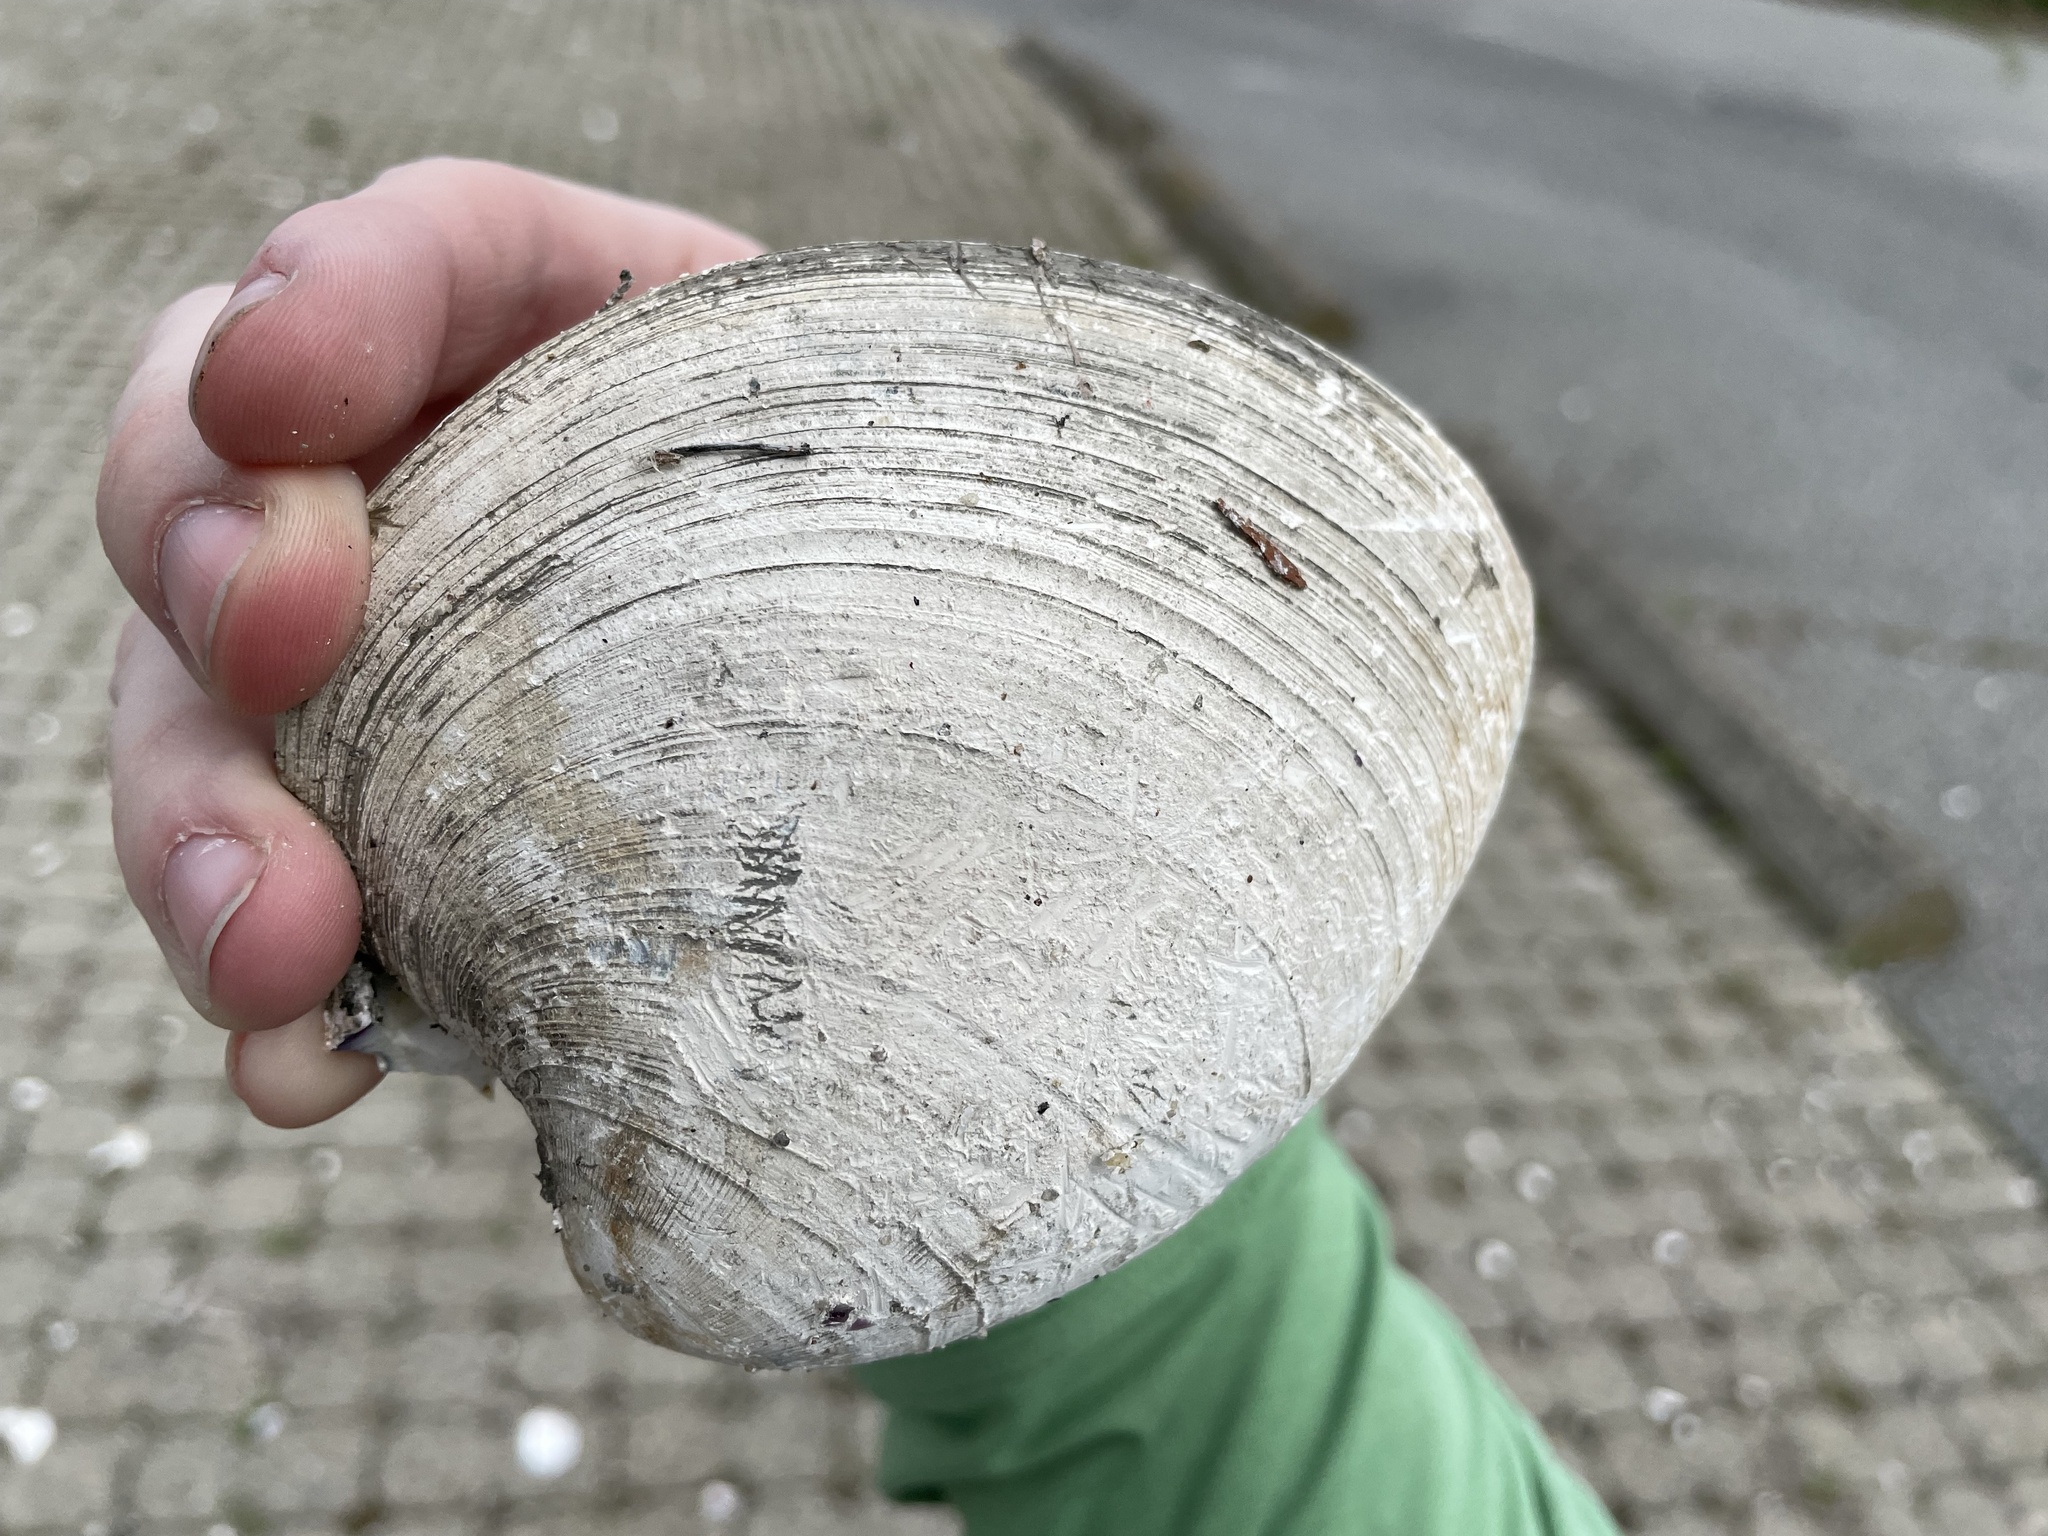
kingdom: Animalia
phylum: Mollusca
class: Bivalvia
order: Venerida
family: Veneridae
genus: Mercenaria
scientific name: Mercenaria mercenaria
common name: American hard-shelled clam
